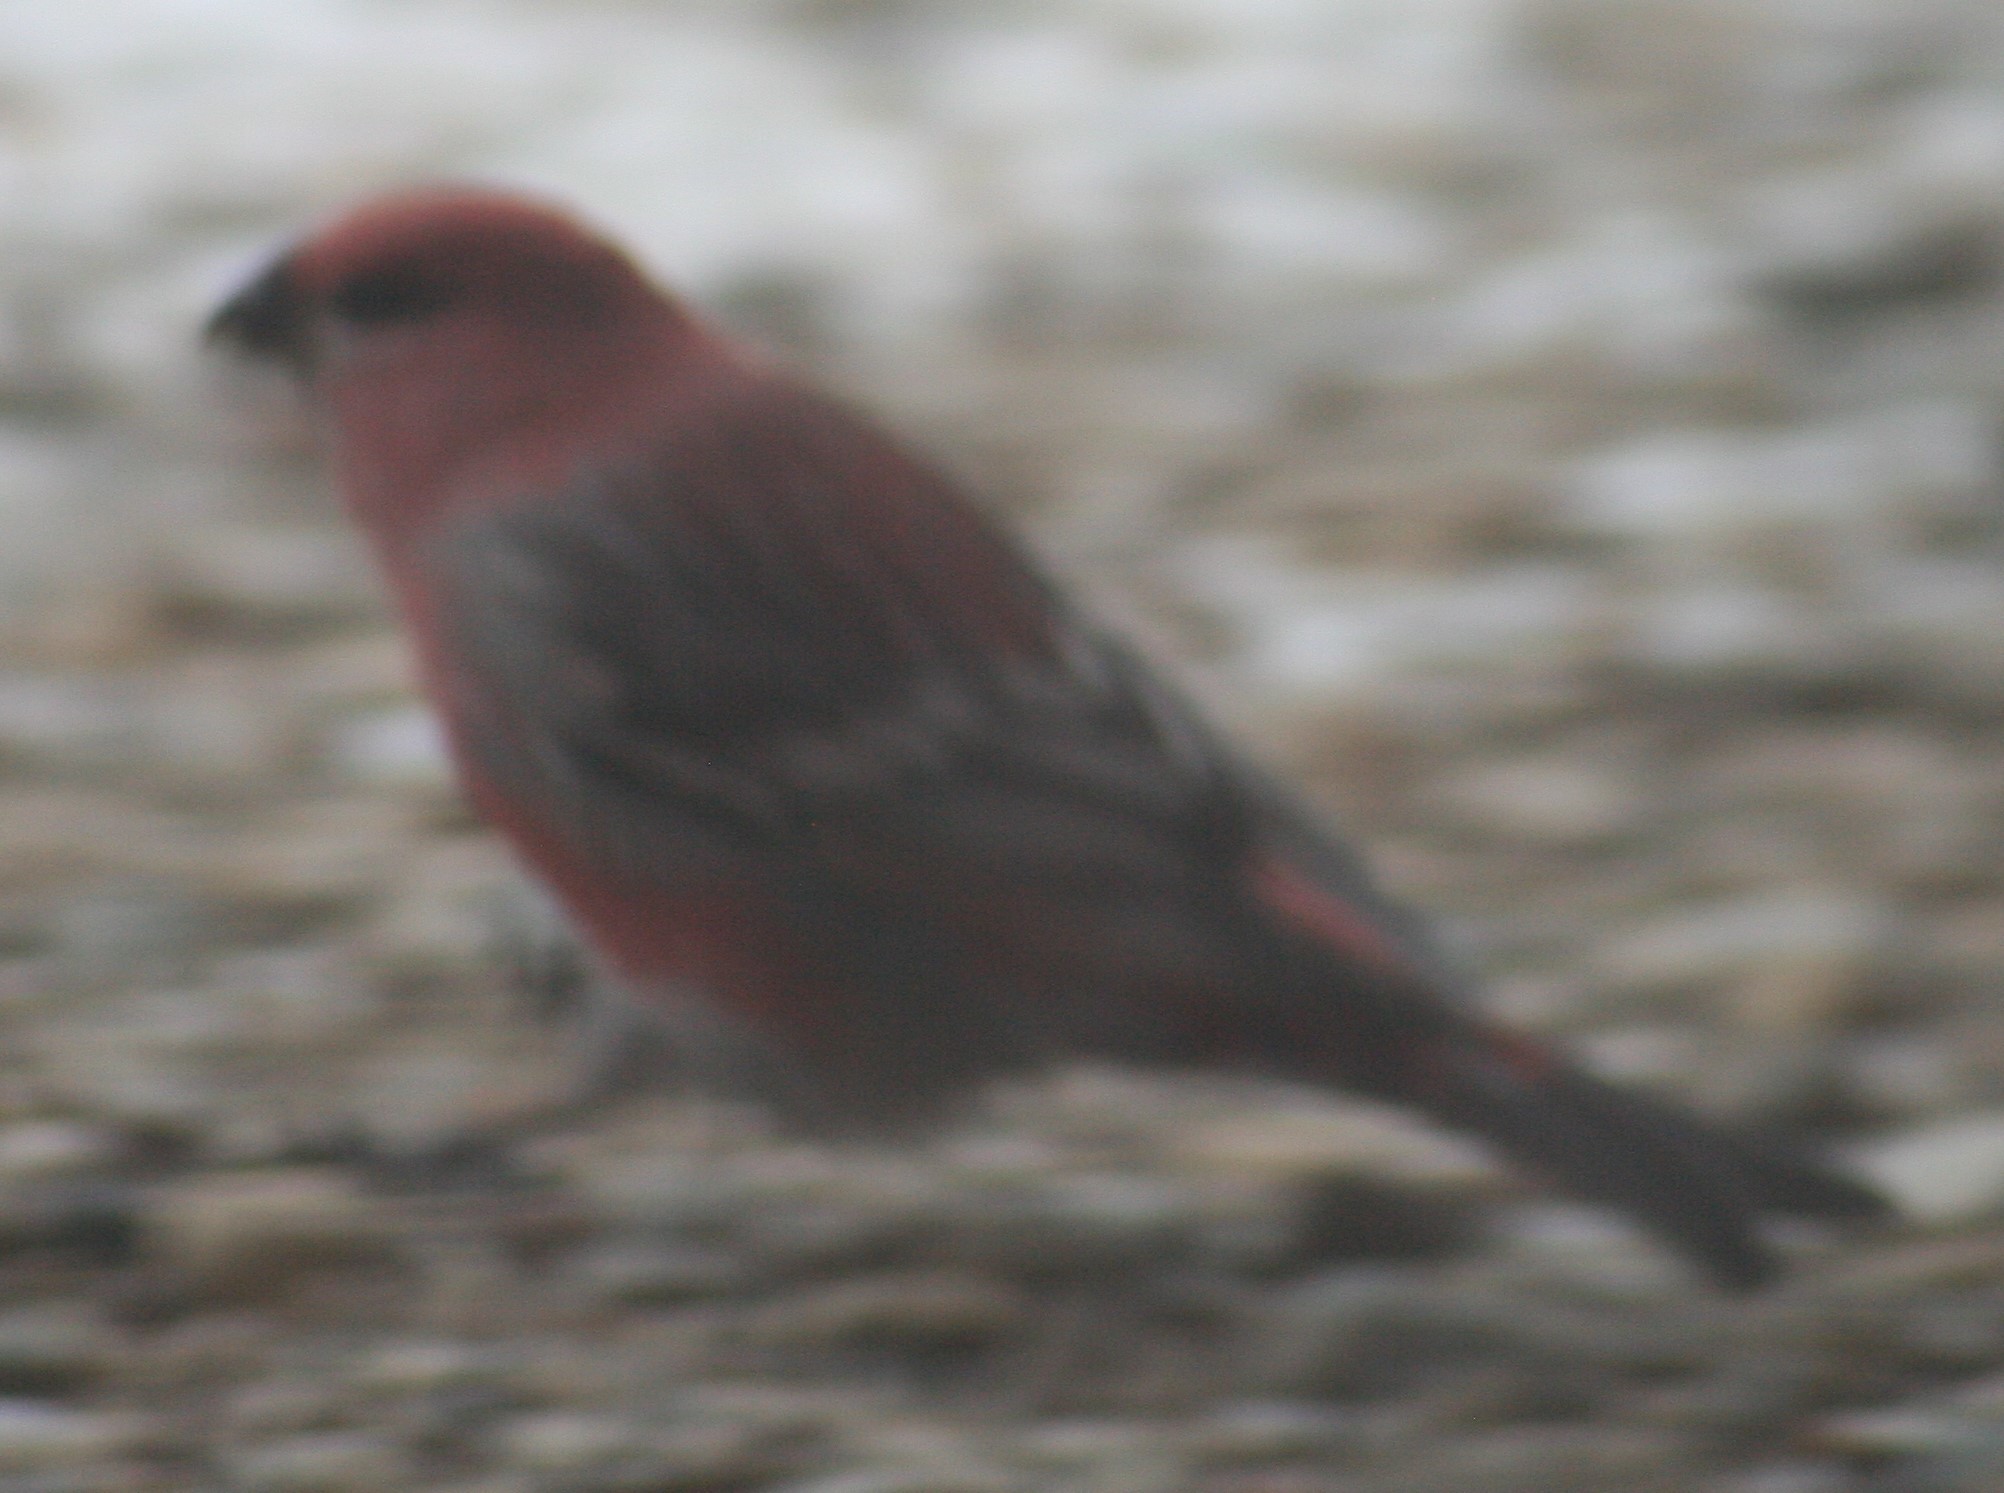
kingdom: Animalia
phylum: Chordata
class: Aves
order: Passeriformes
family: Fringillidae
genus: Pinicola
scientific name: Pinicola enucleator
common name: Pine grosbeak
